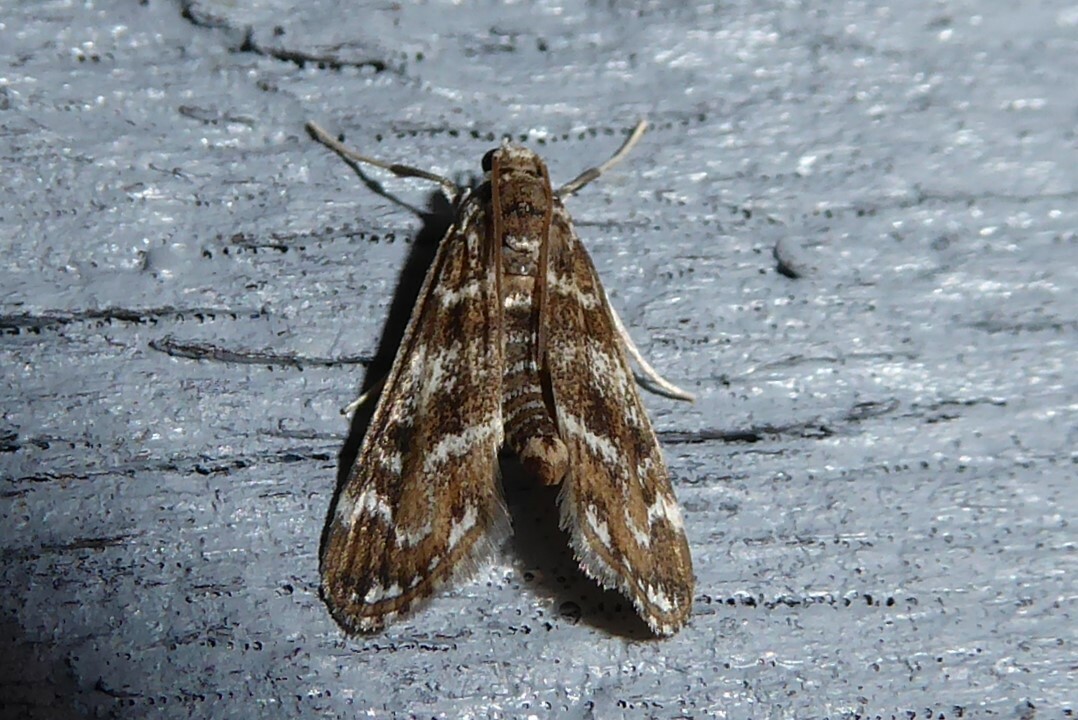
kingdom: Animalia
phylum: Arthropoda
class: Insecta
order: Lepidoptera
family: Crambidae
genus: Hygraula
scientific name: Hygraula nitens
